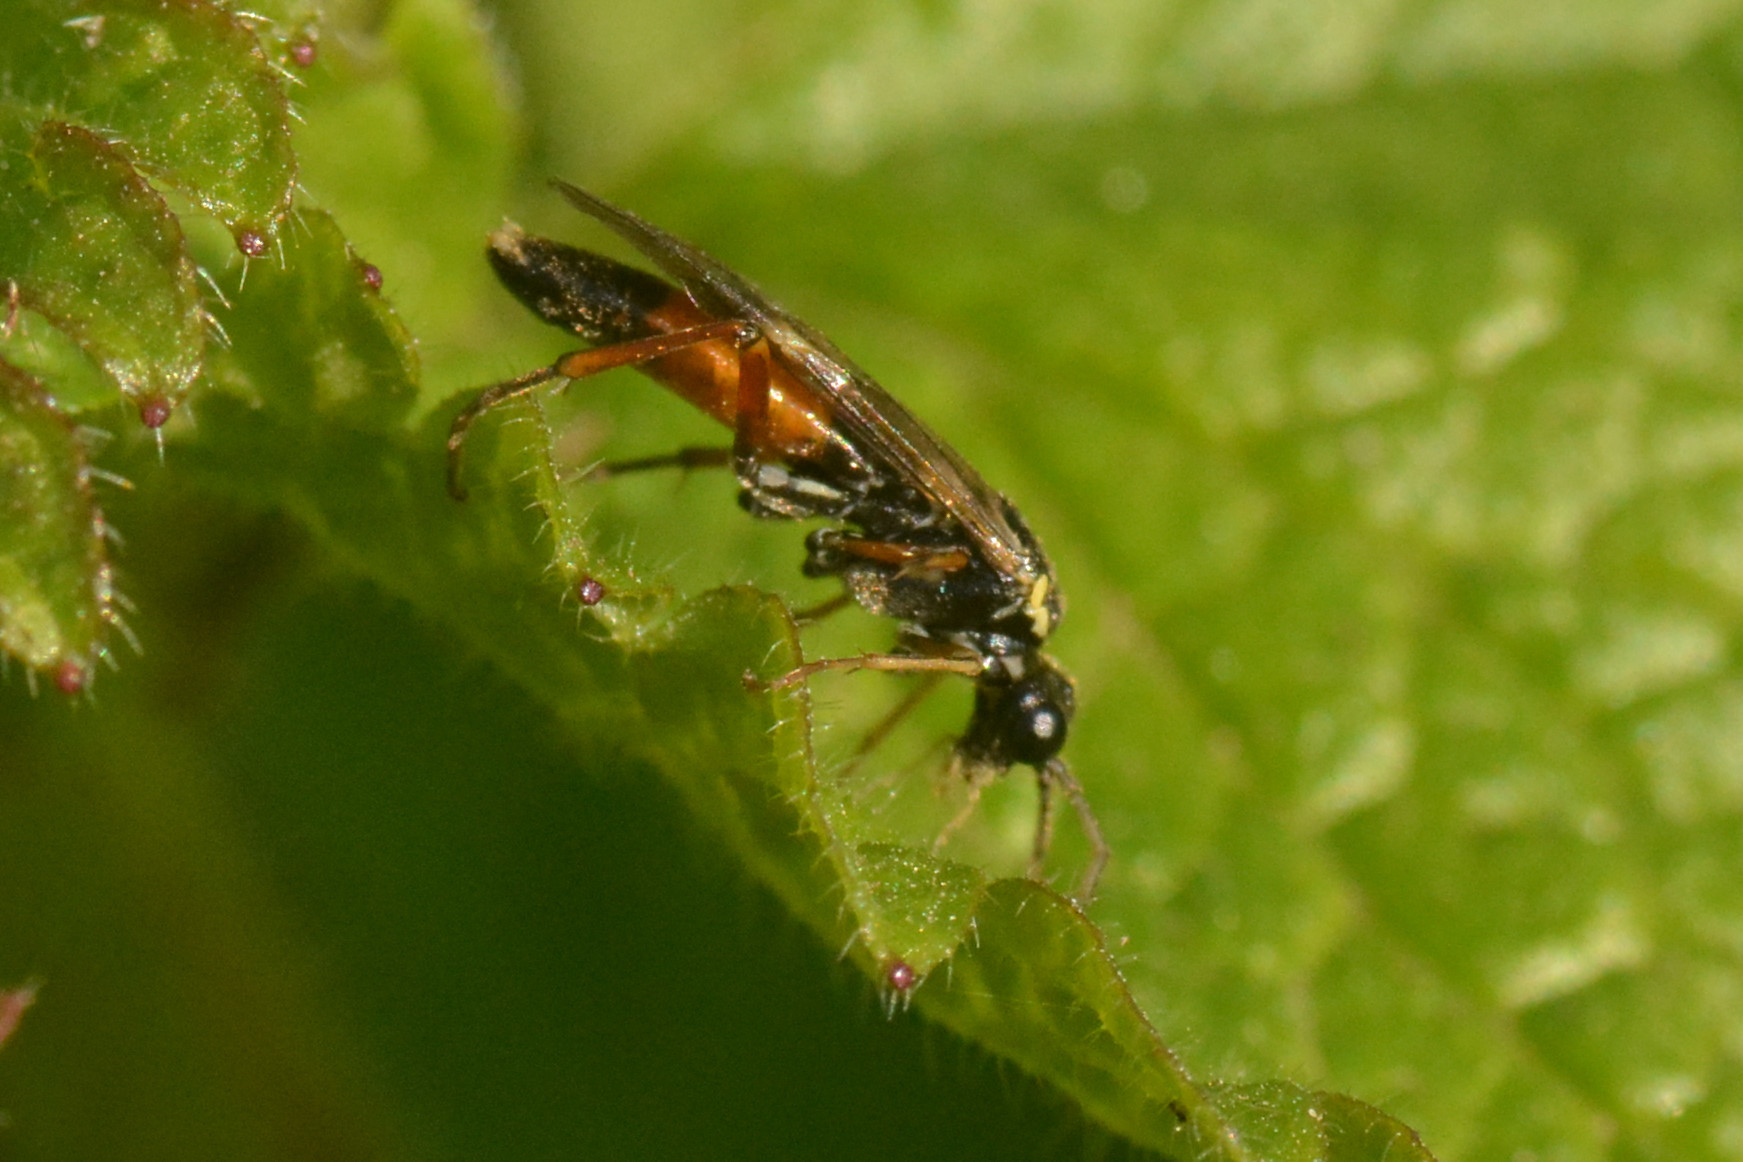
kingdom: Animalia
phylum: Arthropoda
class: Insecta
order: Hymenoptera
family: Tenthredinidae
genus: Aglaostigma
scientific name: Aglaostigma aucupariae
